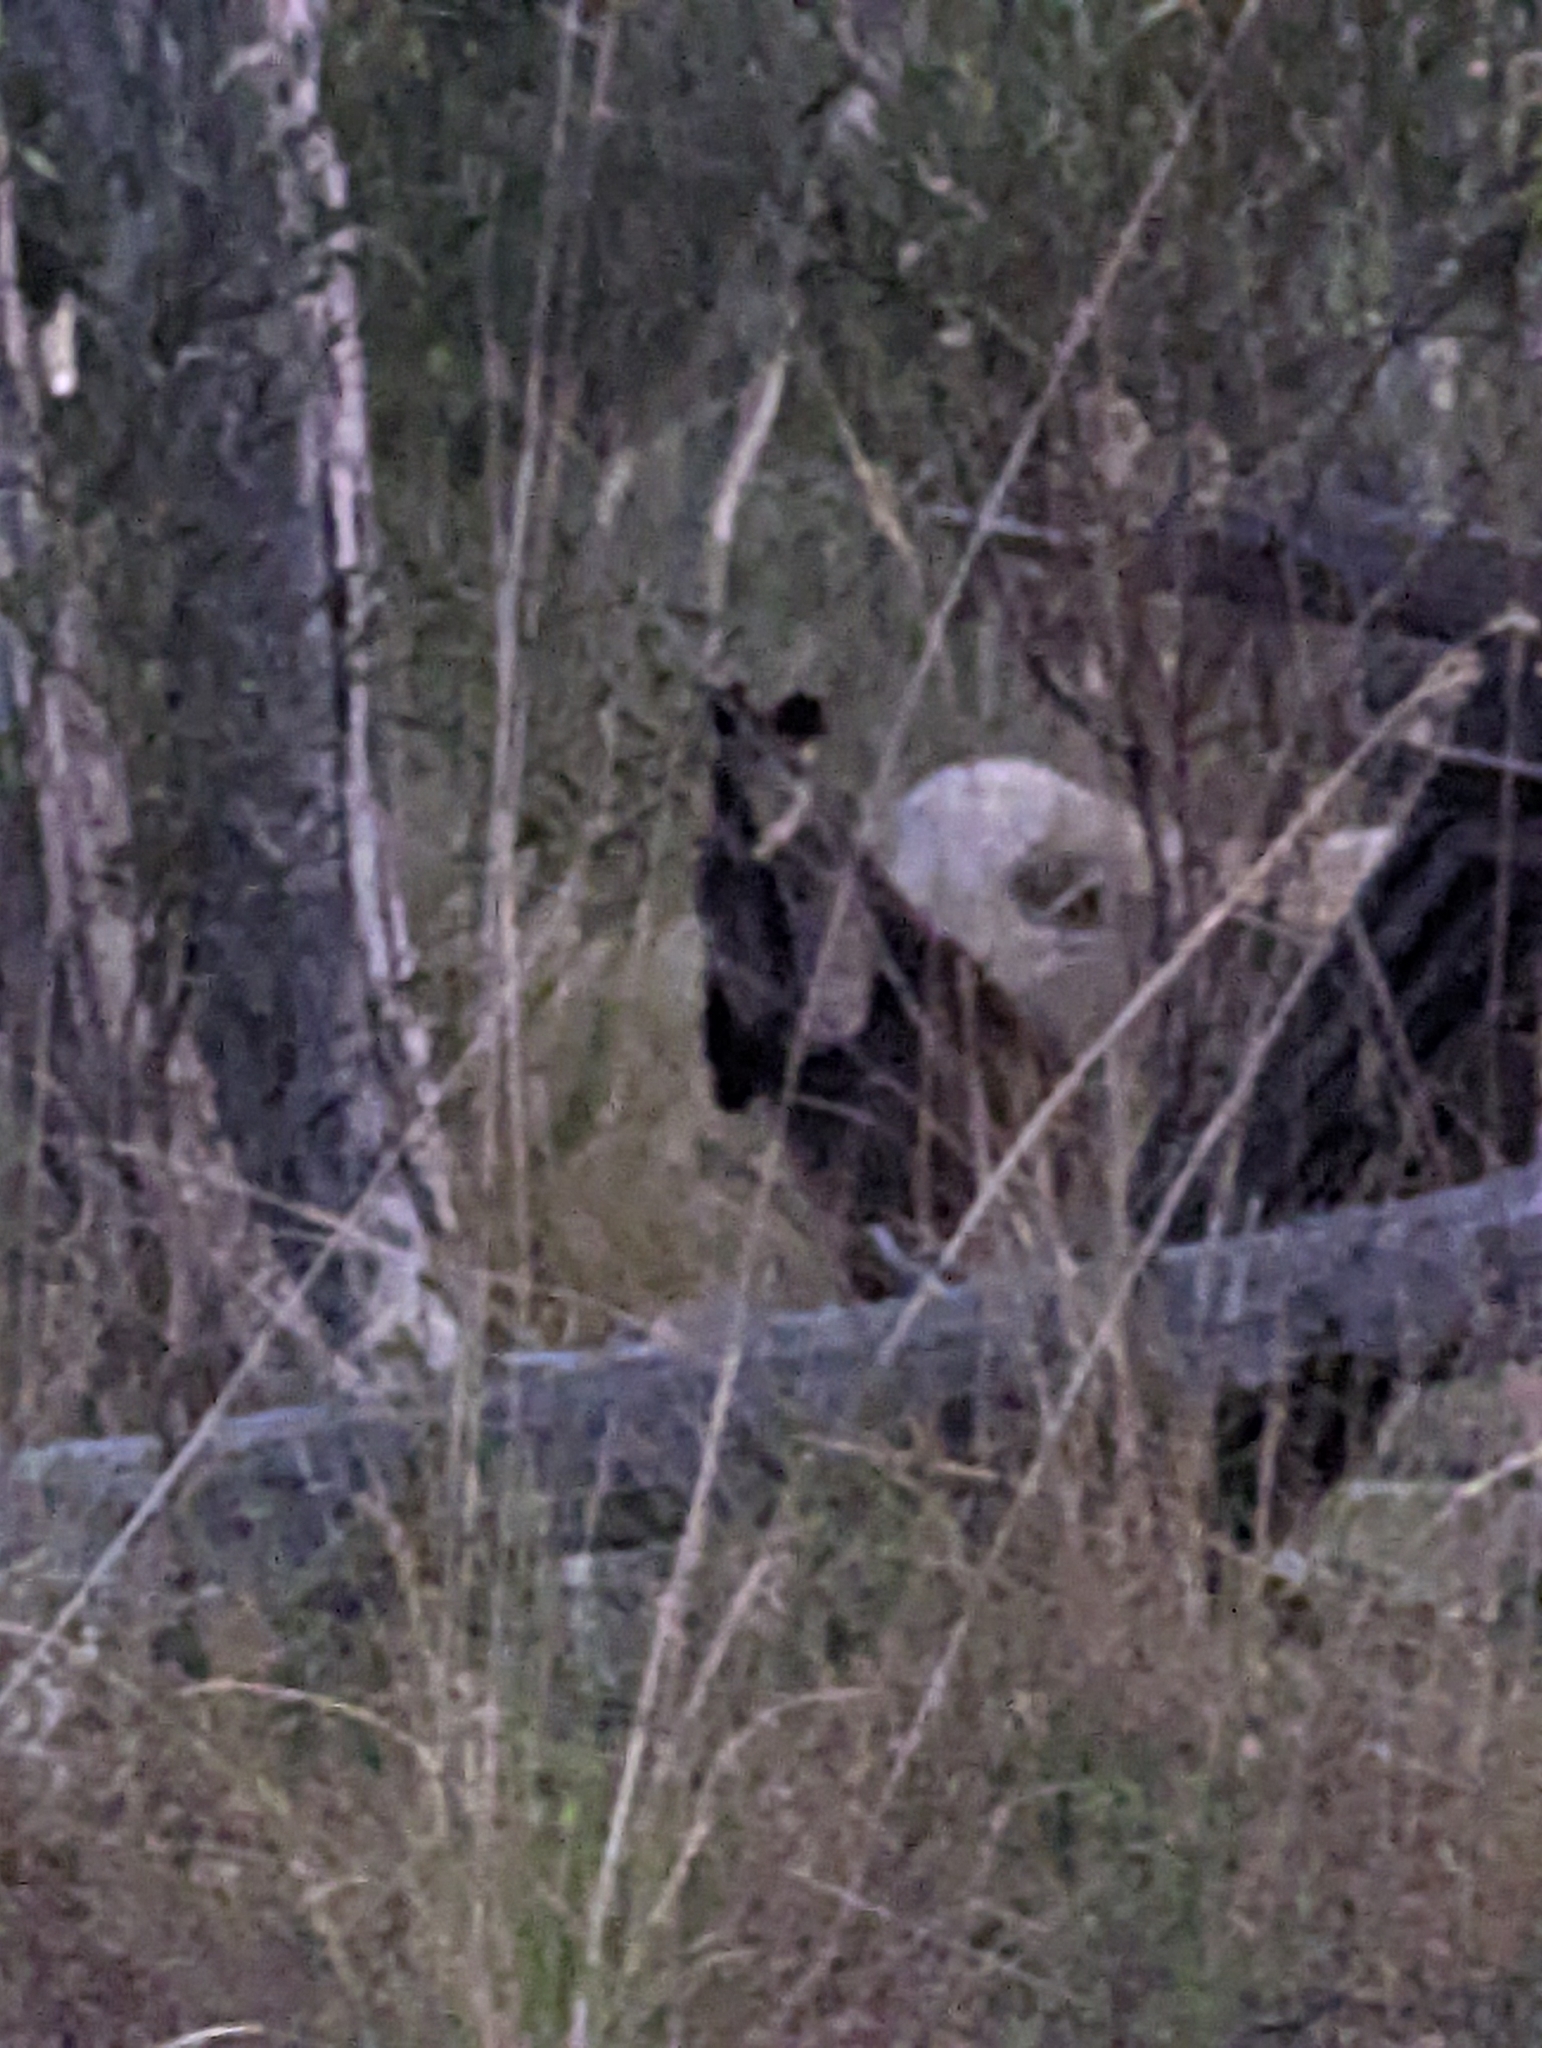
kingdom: Animalia
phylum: Chordata
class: Mammalia
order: Diprotodontia
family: Macropodidae
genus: Wallabia
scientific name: Wallabia bicolor
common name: Swamp wallaby
